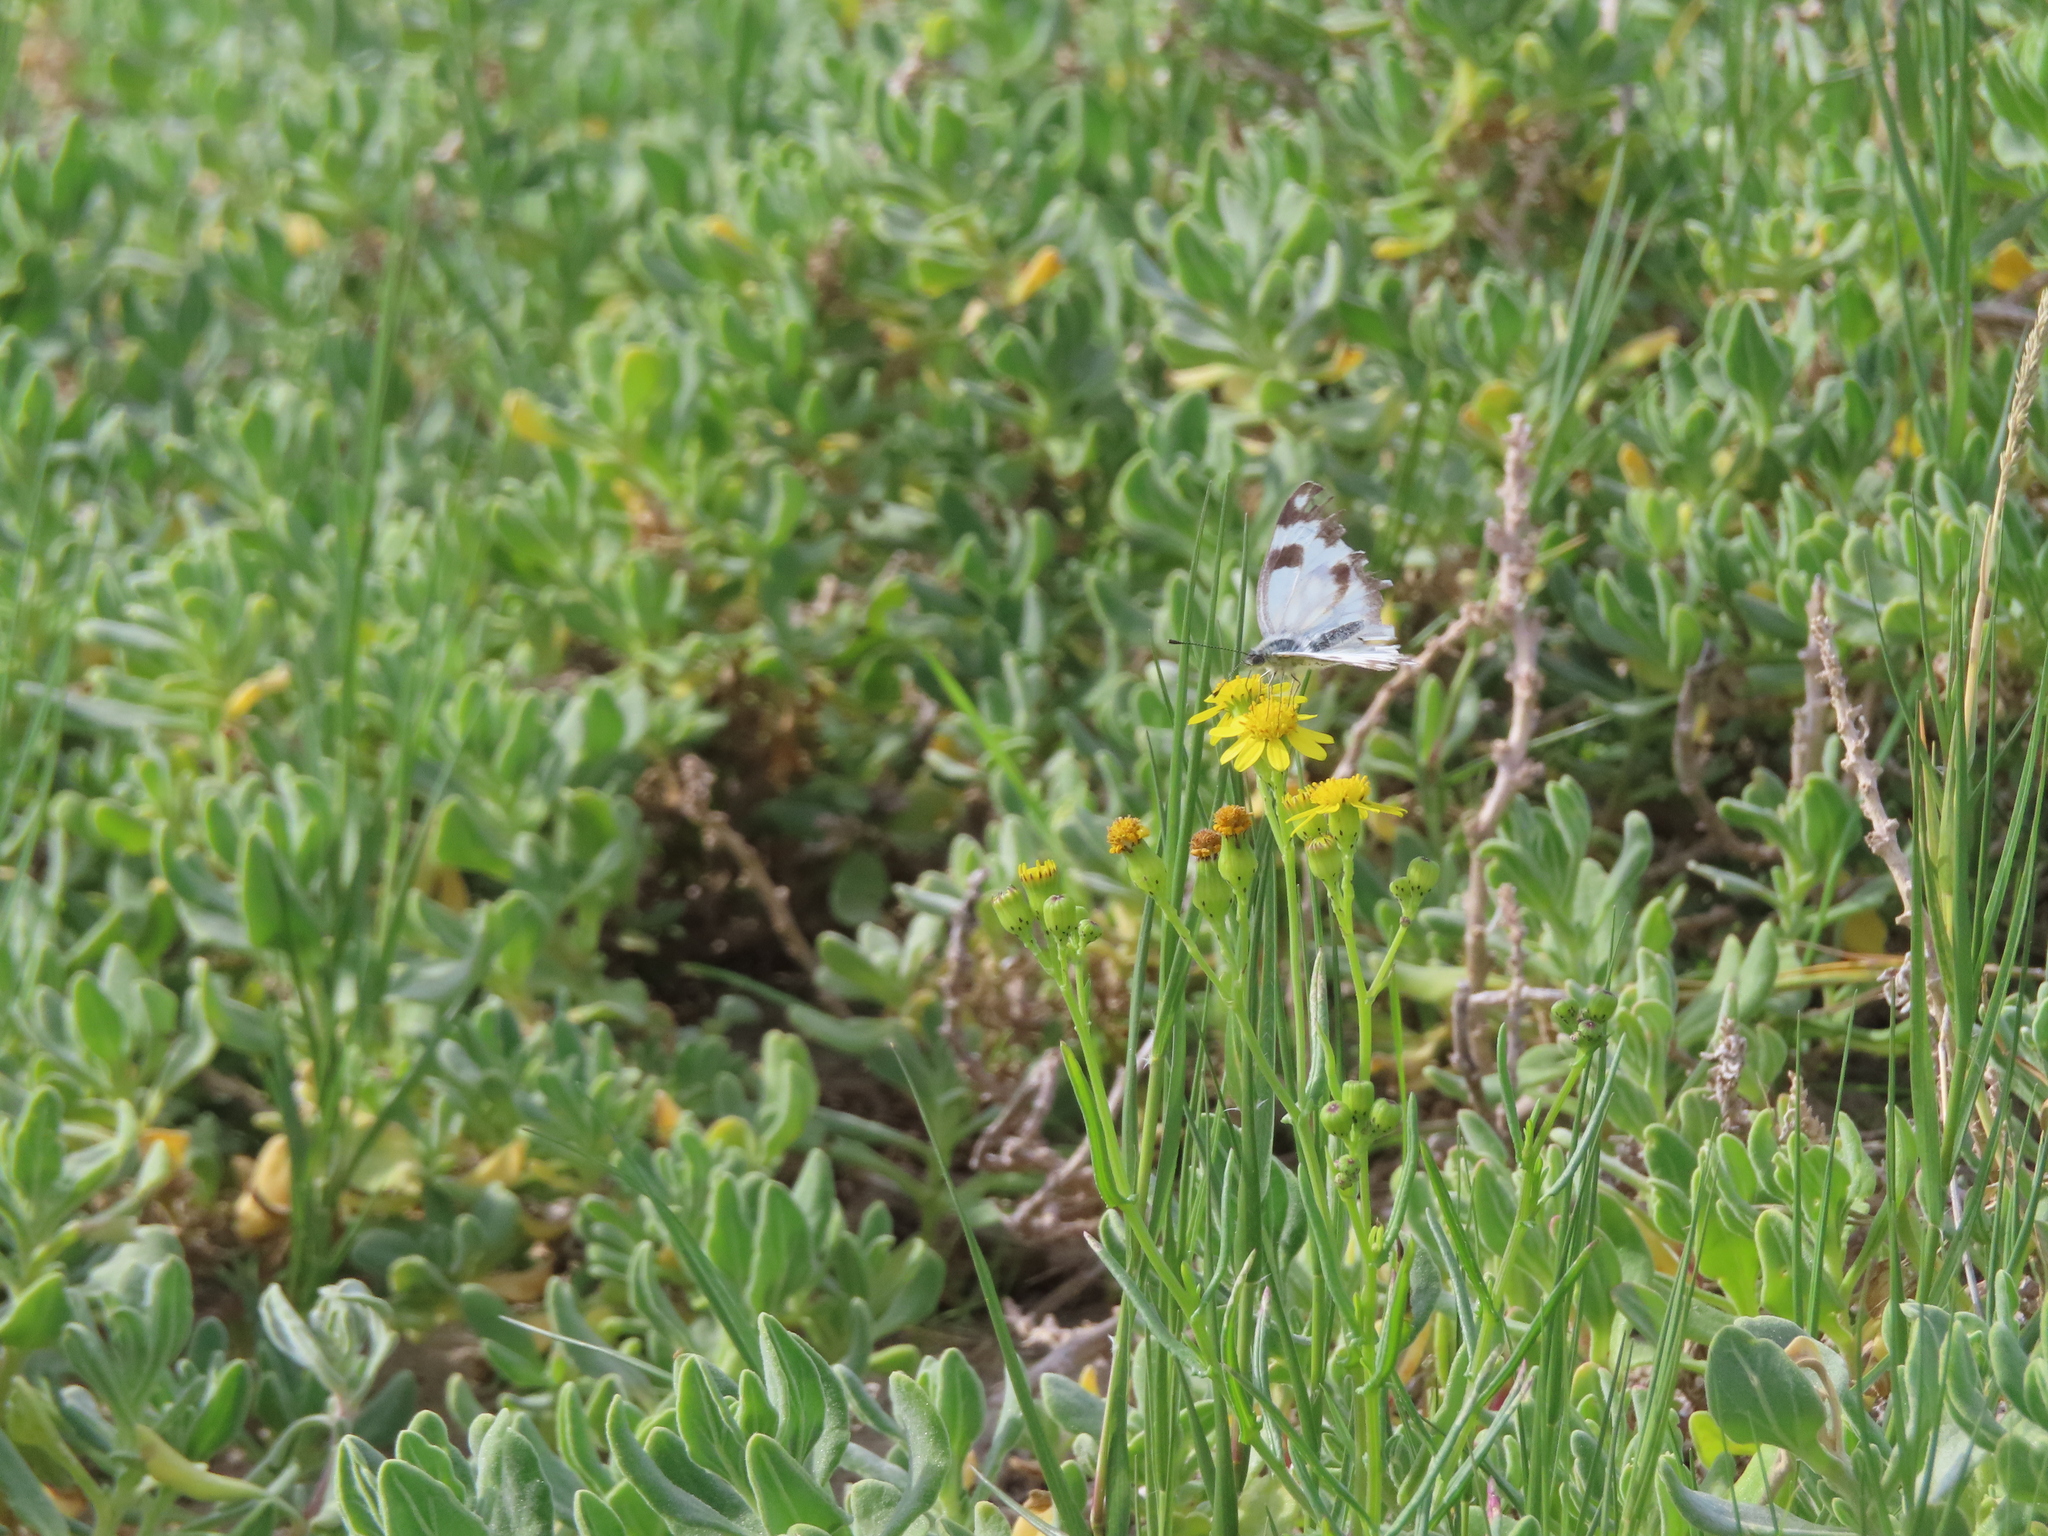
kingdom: Animalia
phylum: Arthropoda
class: Insecta
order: Lepidoptera
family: Pieridae
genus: Pontia
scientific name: Pontia helice
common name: Meadow white
